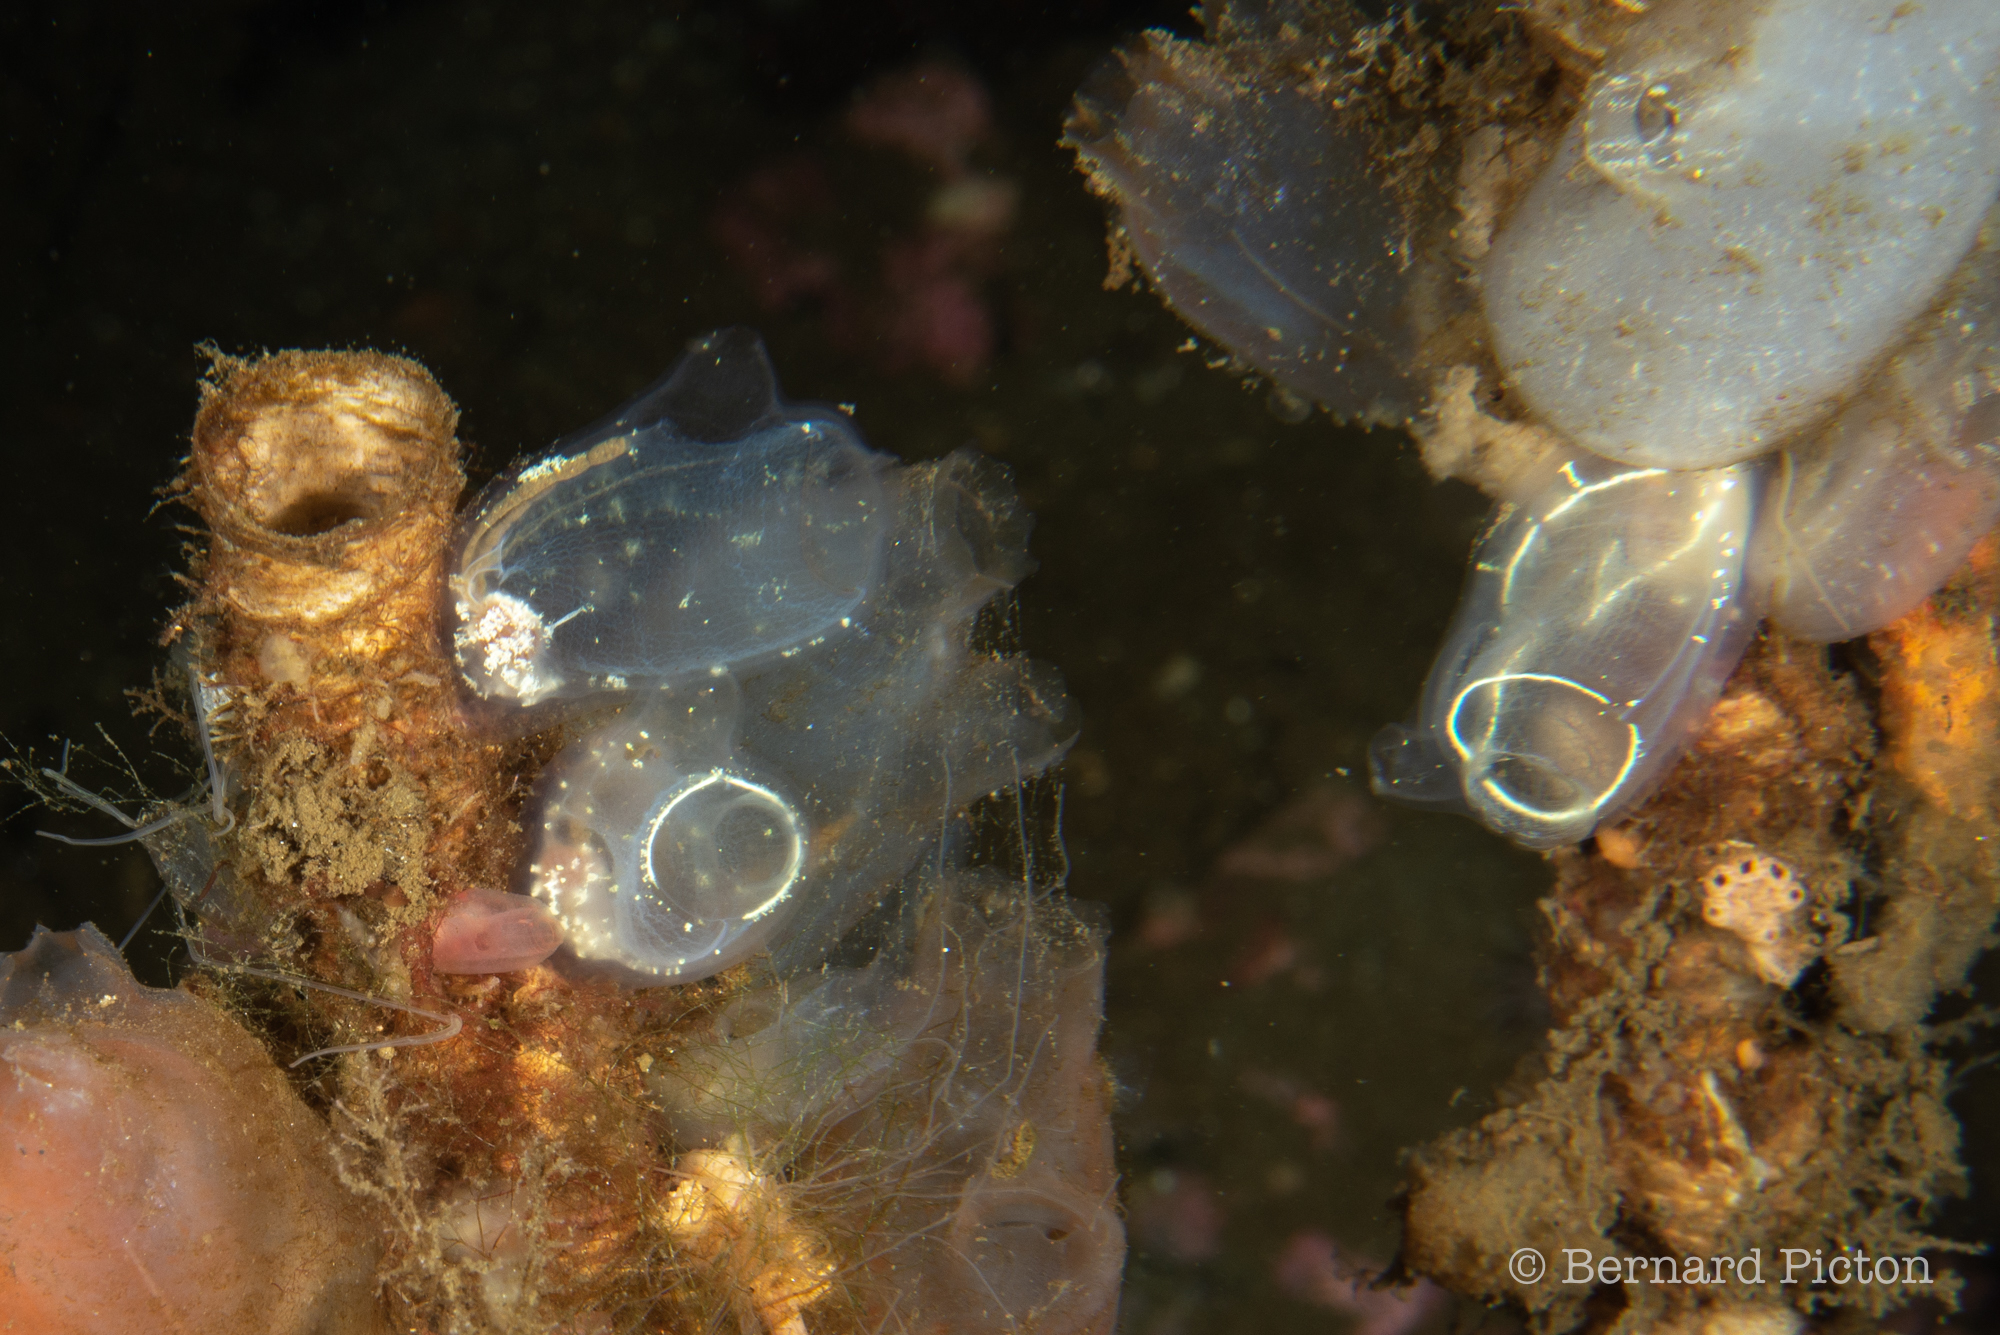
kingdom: Animalia
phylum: Chordata
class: Ascidiacea
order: Phlebobranchia
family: Corellidae
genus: Corella
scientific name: Corella parallelogramma
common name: Gas mantle ascidian
